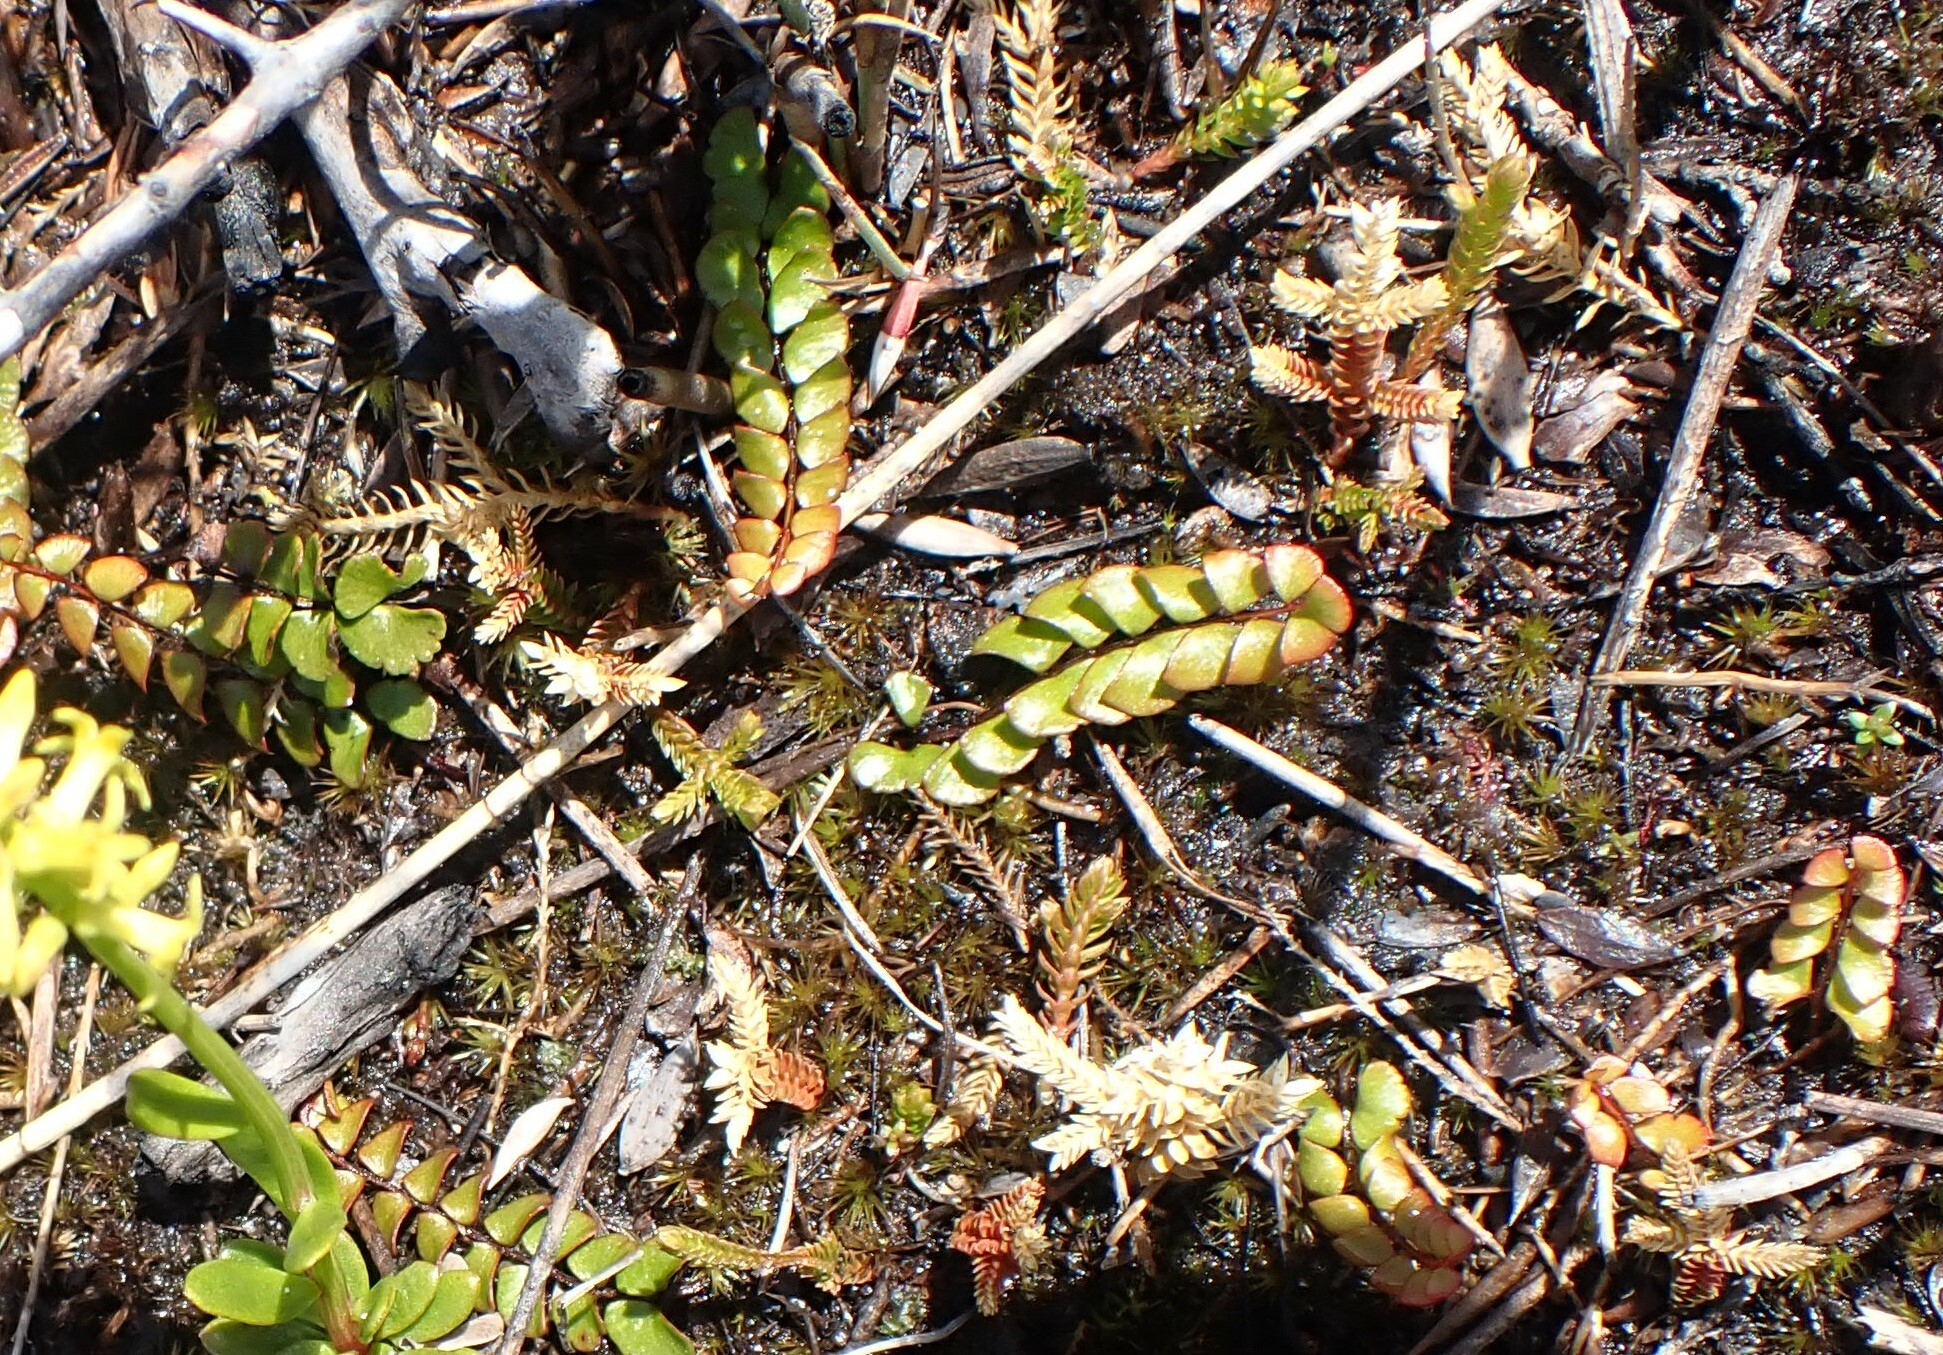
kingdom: Plantae
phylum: Tracheophyta
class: Polypodiopsida
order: Polypodiales
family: Lindsaeaceae
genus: Lindsaea
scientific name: Lindsaea linearis
